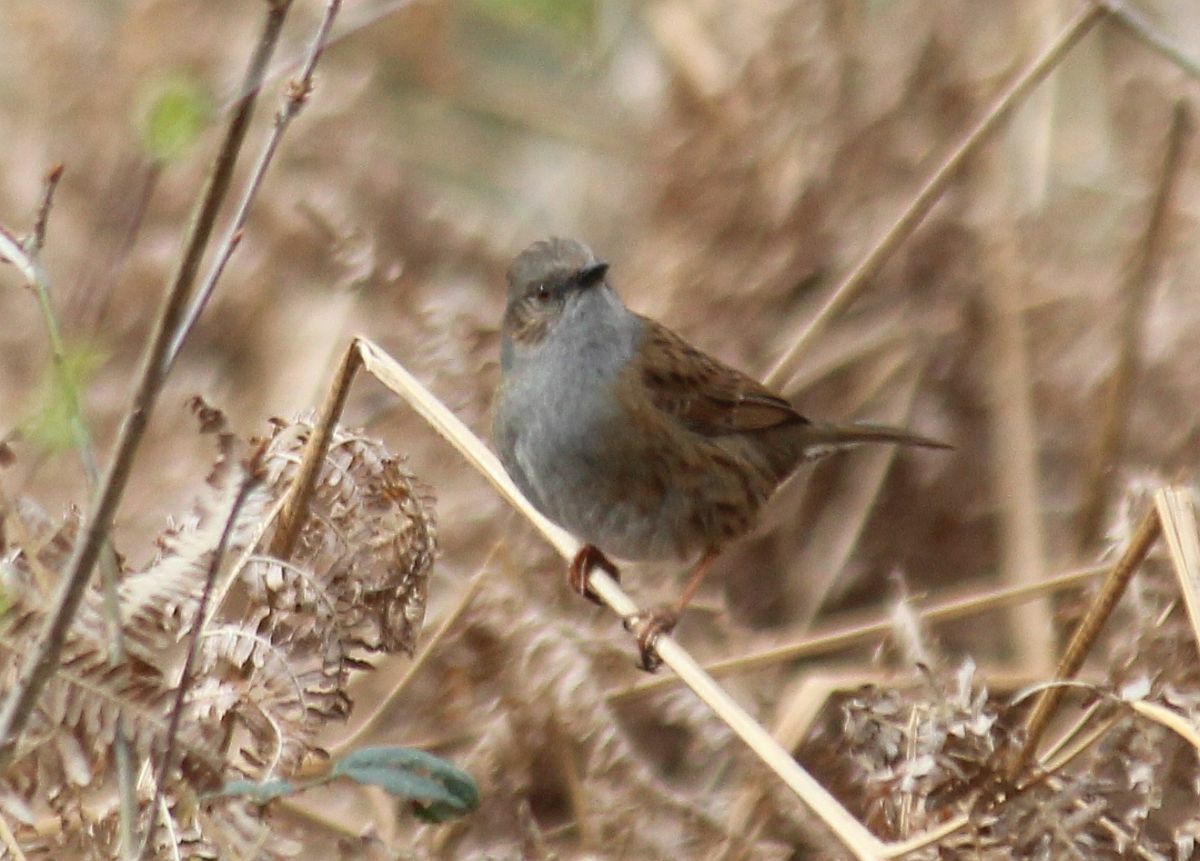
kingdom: Animalia
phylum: Chordata
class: Aves
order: Passeriformes
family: Prunellidae
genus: Prunella
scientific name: Prunella modularis
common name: Dunnock
